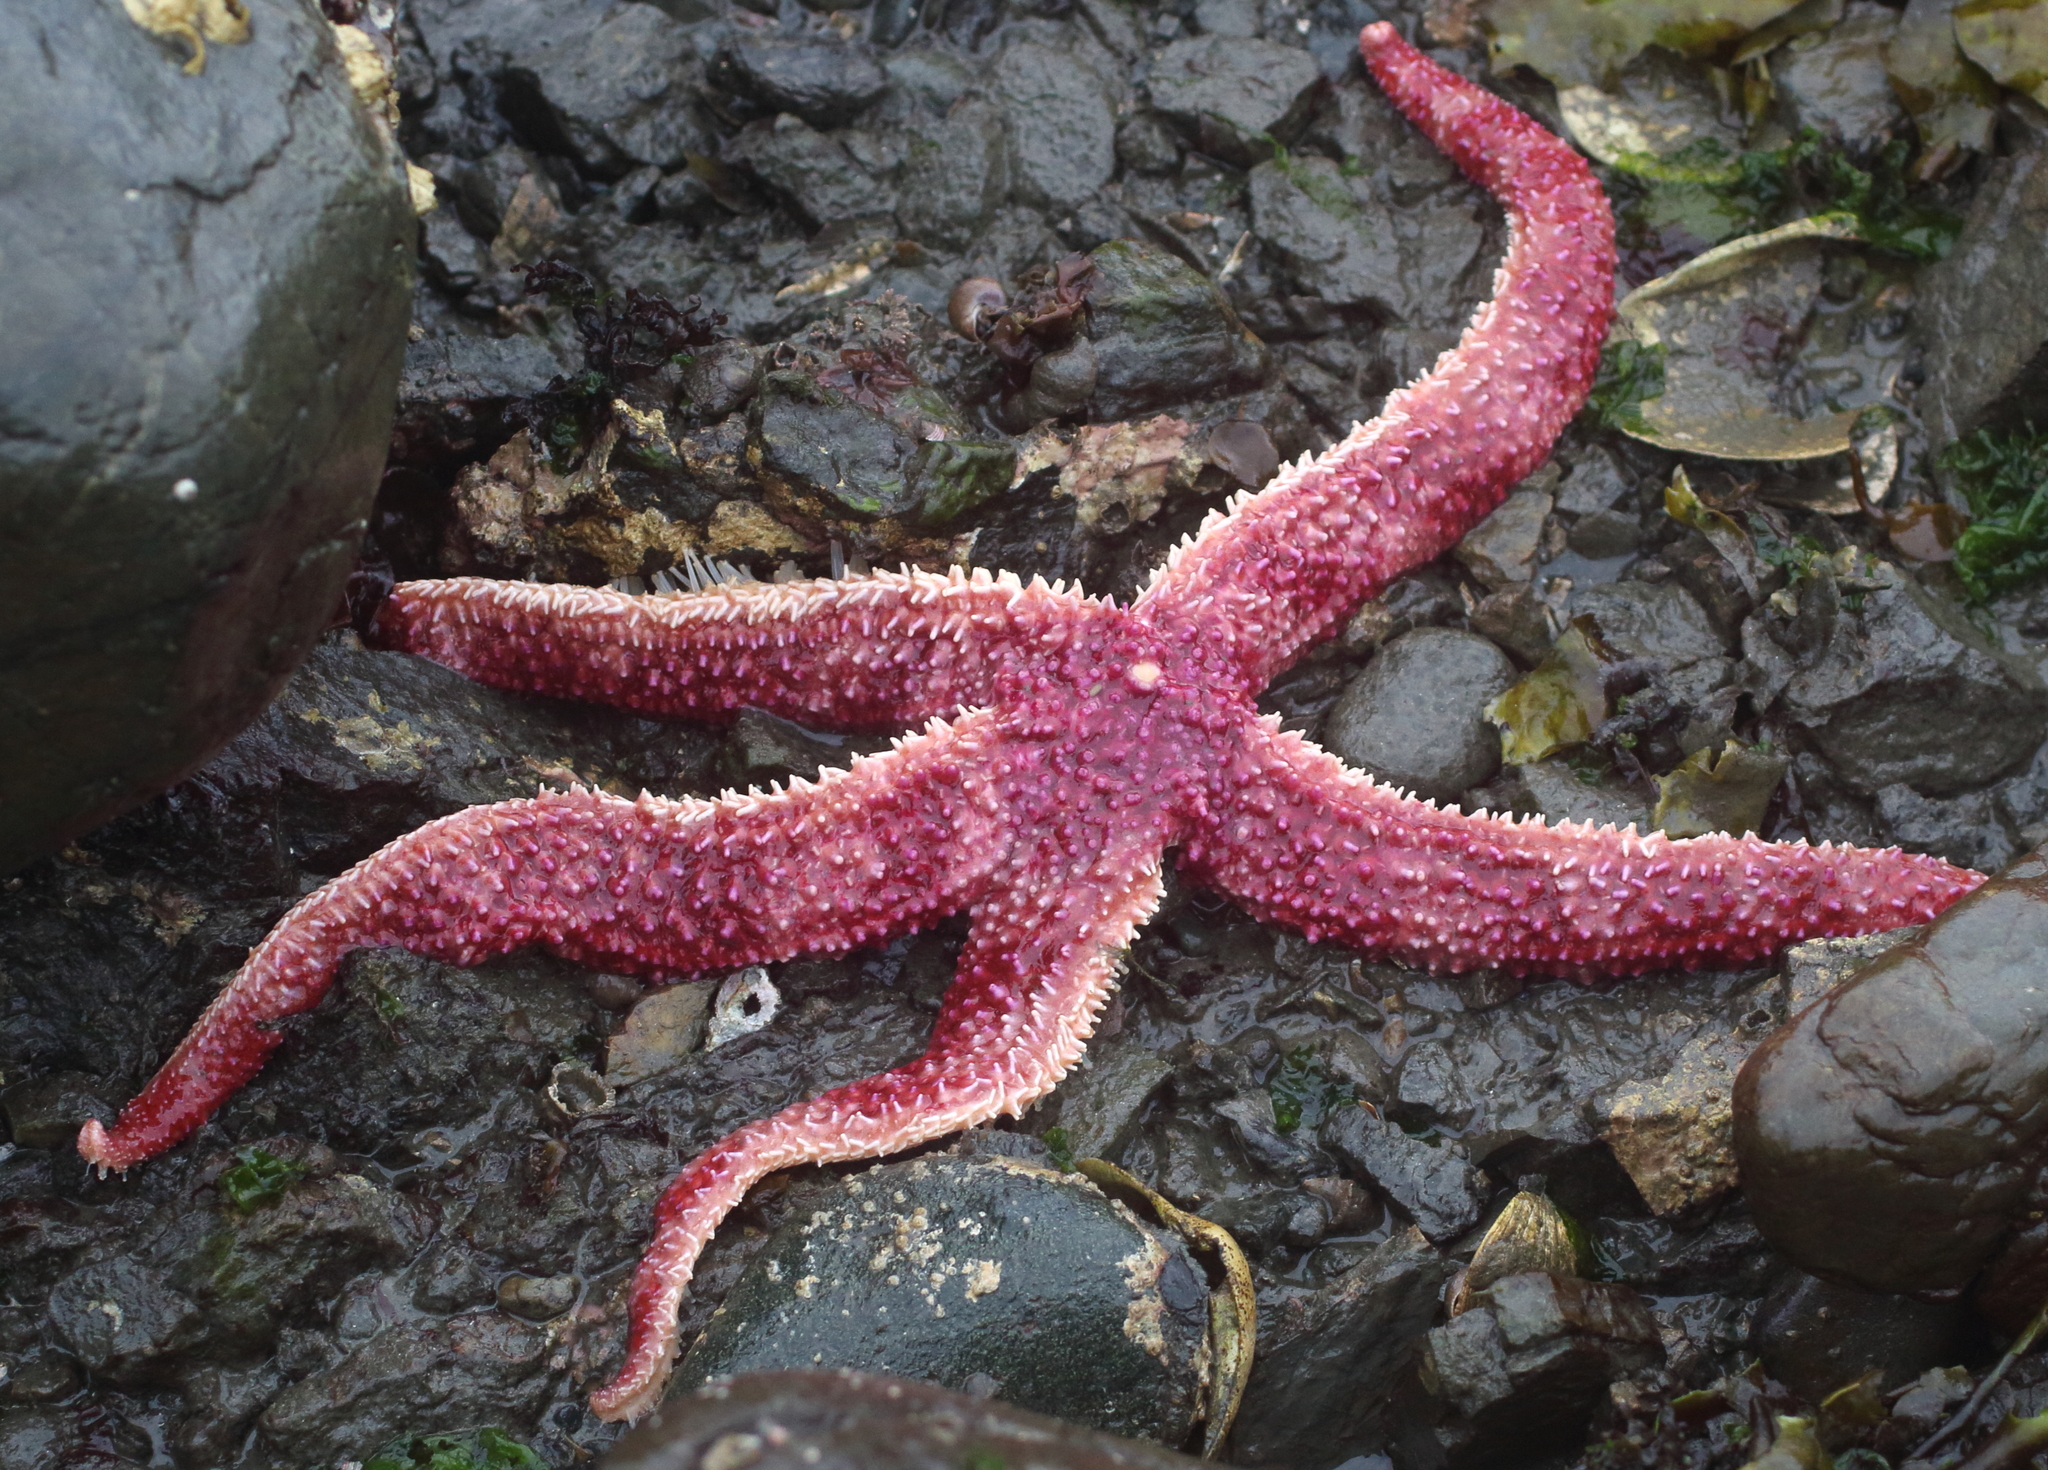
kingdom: Animalia
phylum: Echinodermata
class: Asteroidea
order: Forcipulatida
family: Asteriidae
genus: Orthasterias
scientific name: Orthasterias koehleri
